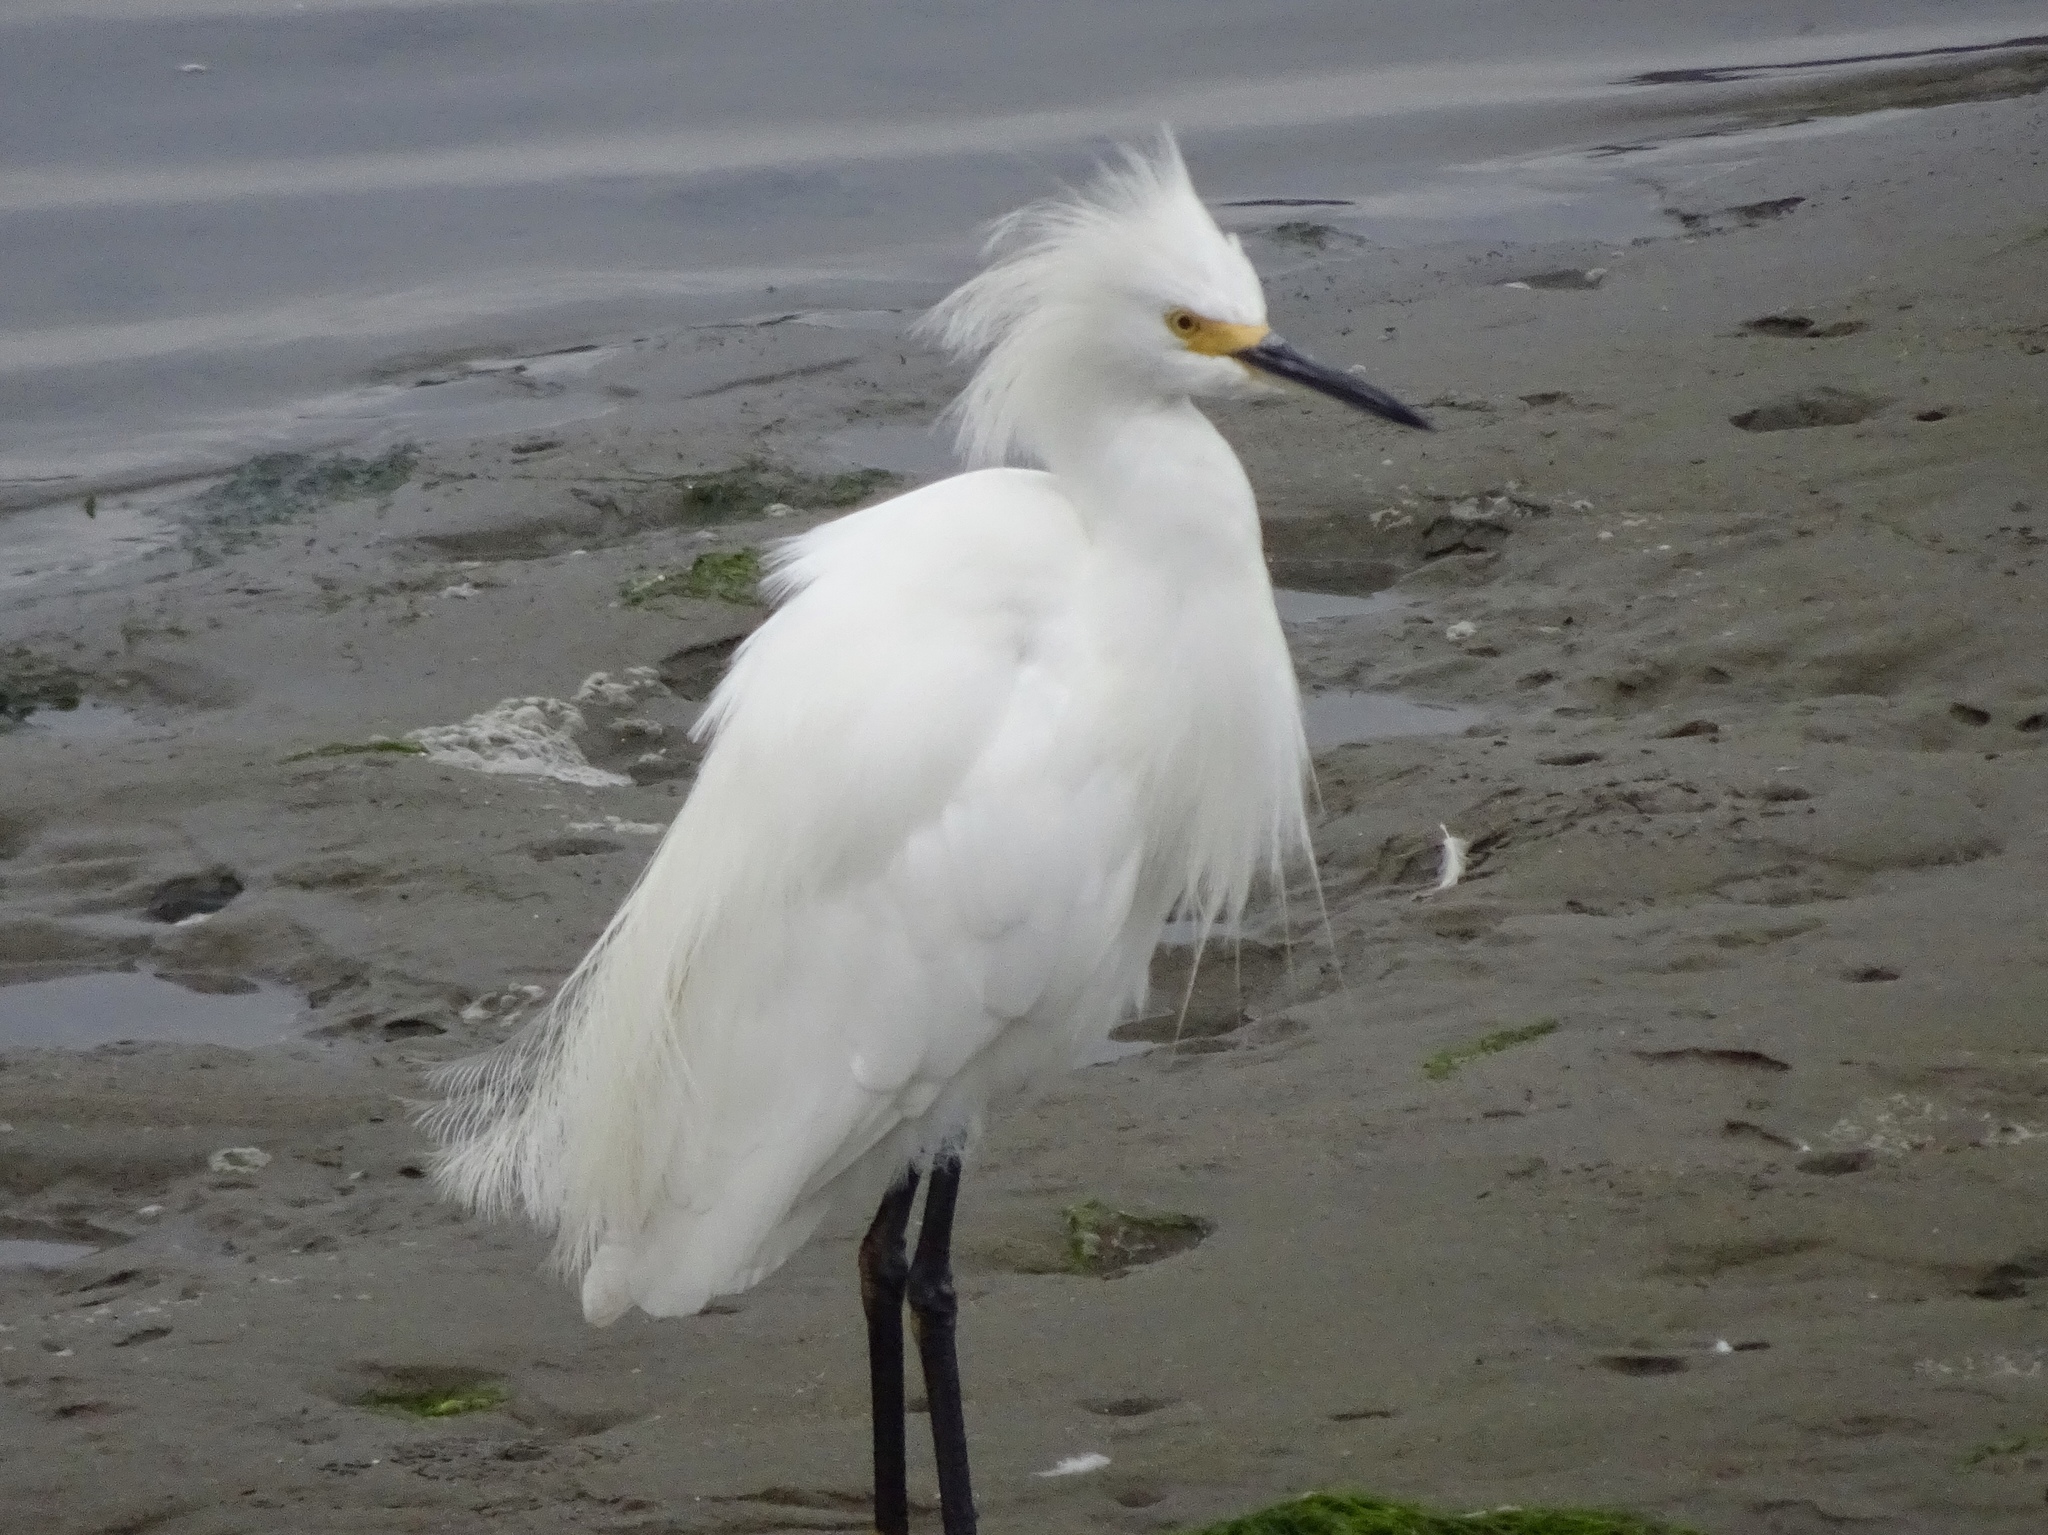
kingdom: Animalia
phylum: Chordata
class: Aves
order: Pelecaniformes
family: Ardeidae
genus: Egretta
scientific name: Egretta thula
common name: Snowy egret
